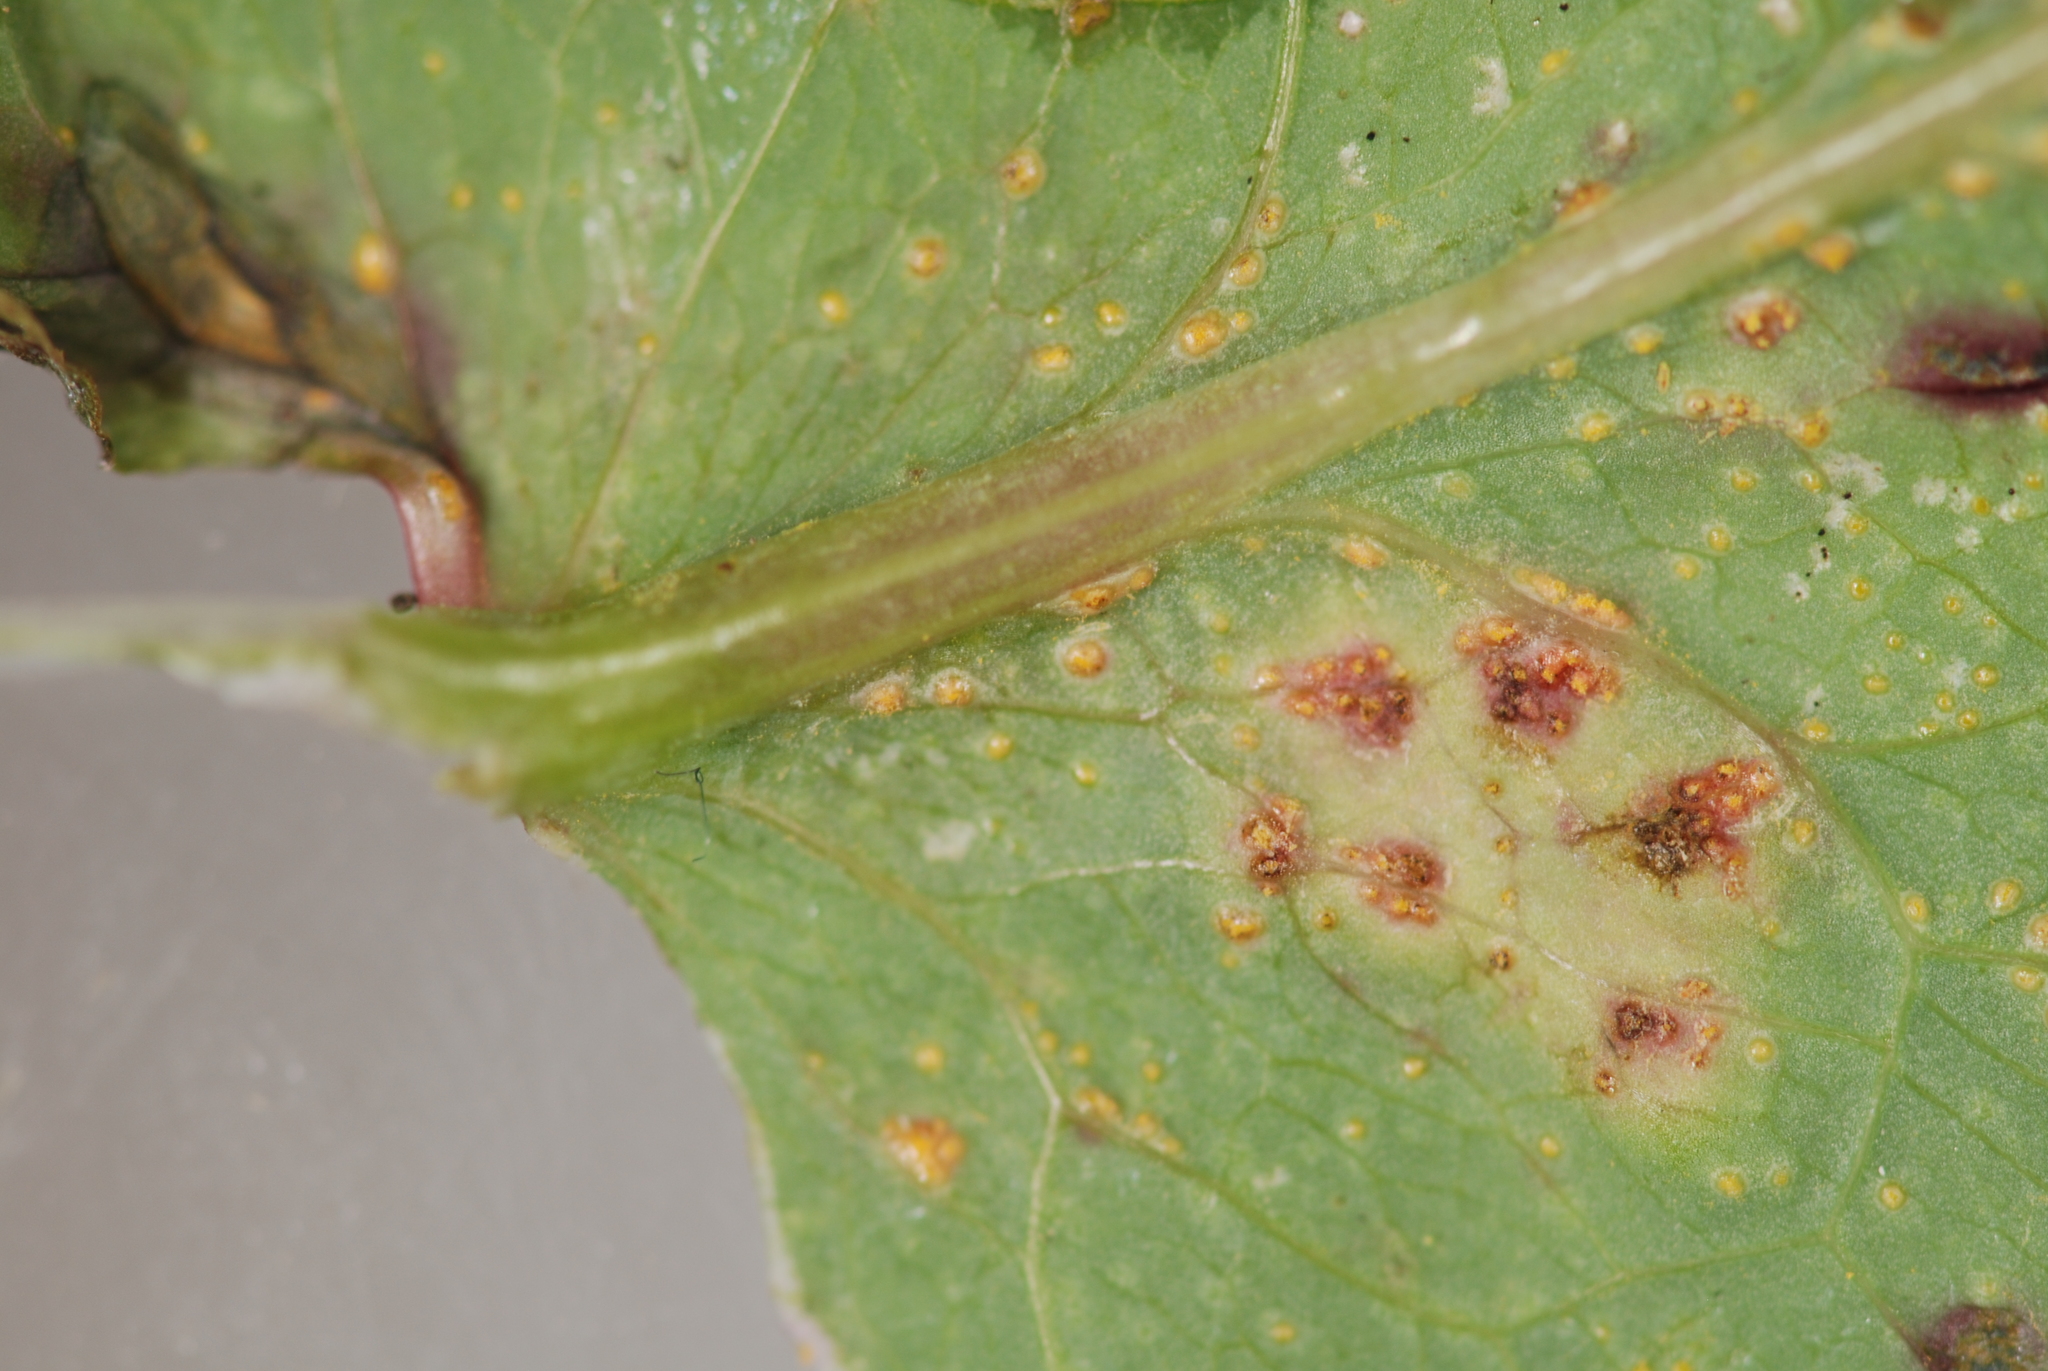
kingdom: Fungi
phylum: Basidiomycota
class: Pucciniomycetes
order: Pucciniales
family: Pucciniaceae
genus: Peristemma
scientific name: Peristemma pseudosphaeria
